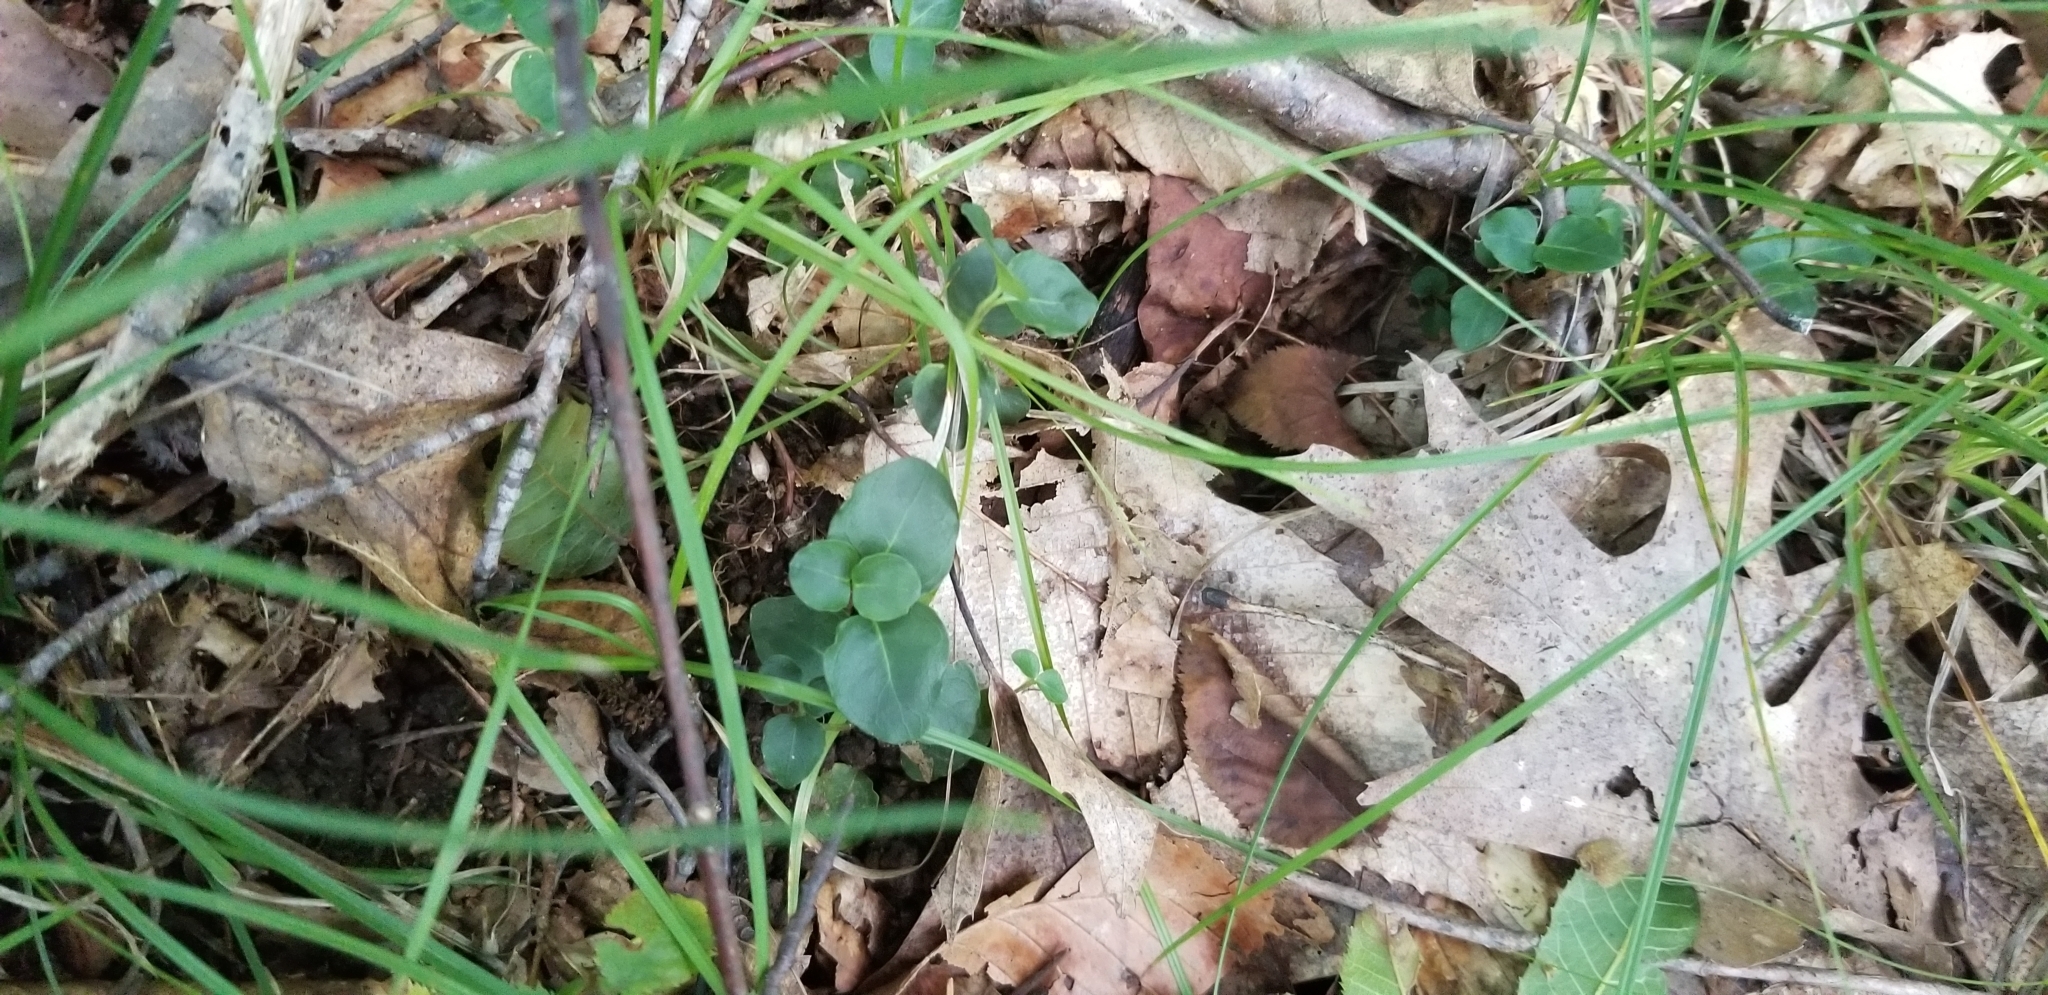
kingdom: Plantae
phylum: Tracheophyta
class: Magnoliopsida
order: Gentianales
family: Rubiaceae
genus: Mitchella
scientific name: Mitchella repens
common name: Partridge-berry
